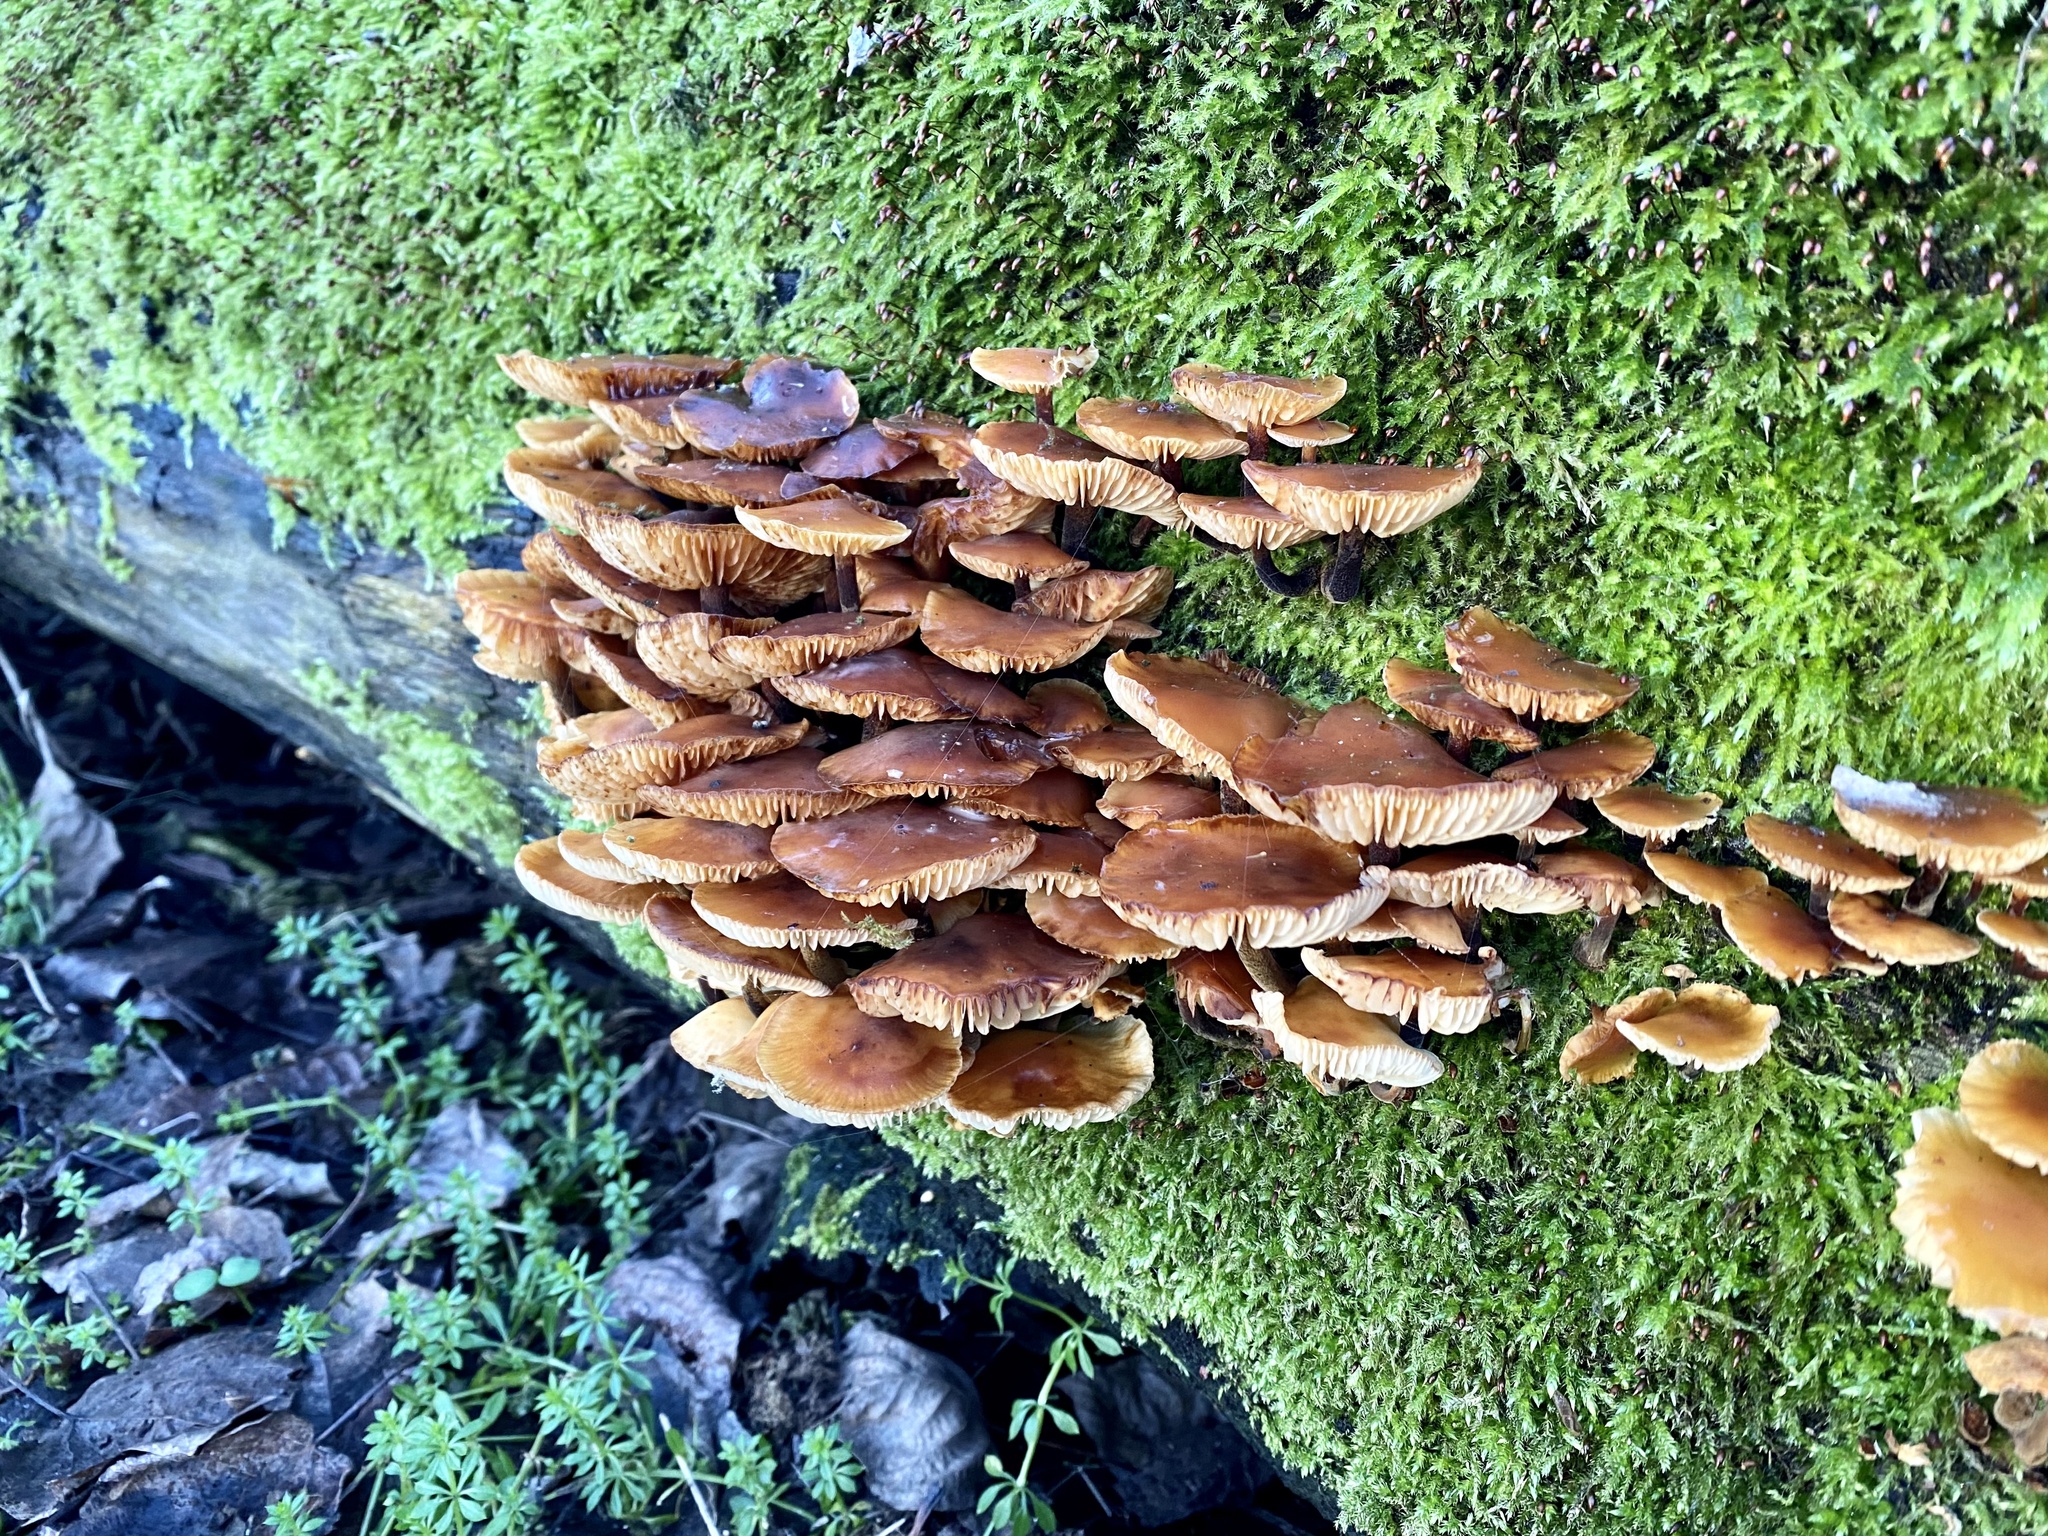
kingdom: Fungi
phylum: Basidiomycota
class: Agaricomycetes
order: Agaricales
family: Physalacriaceae
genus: Flammulina
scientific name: Flammulina
